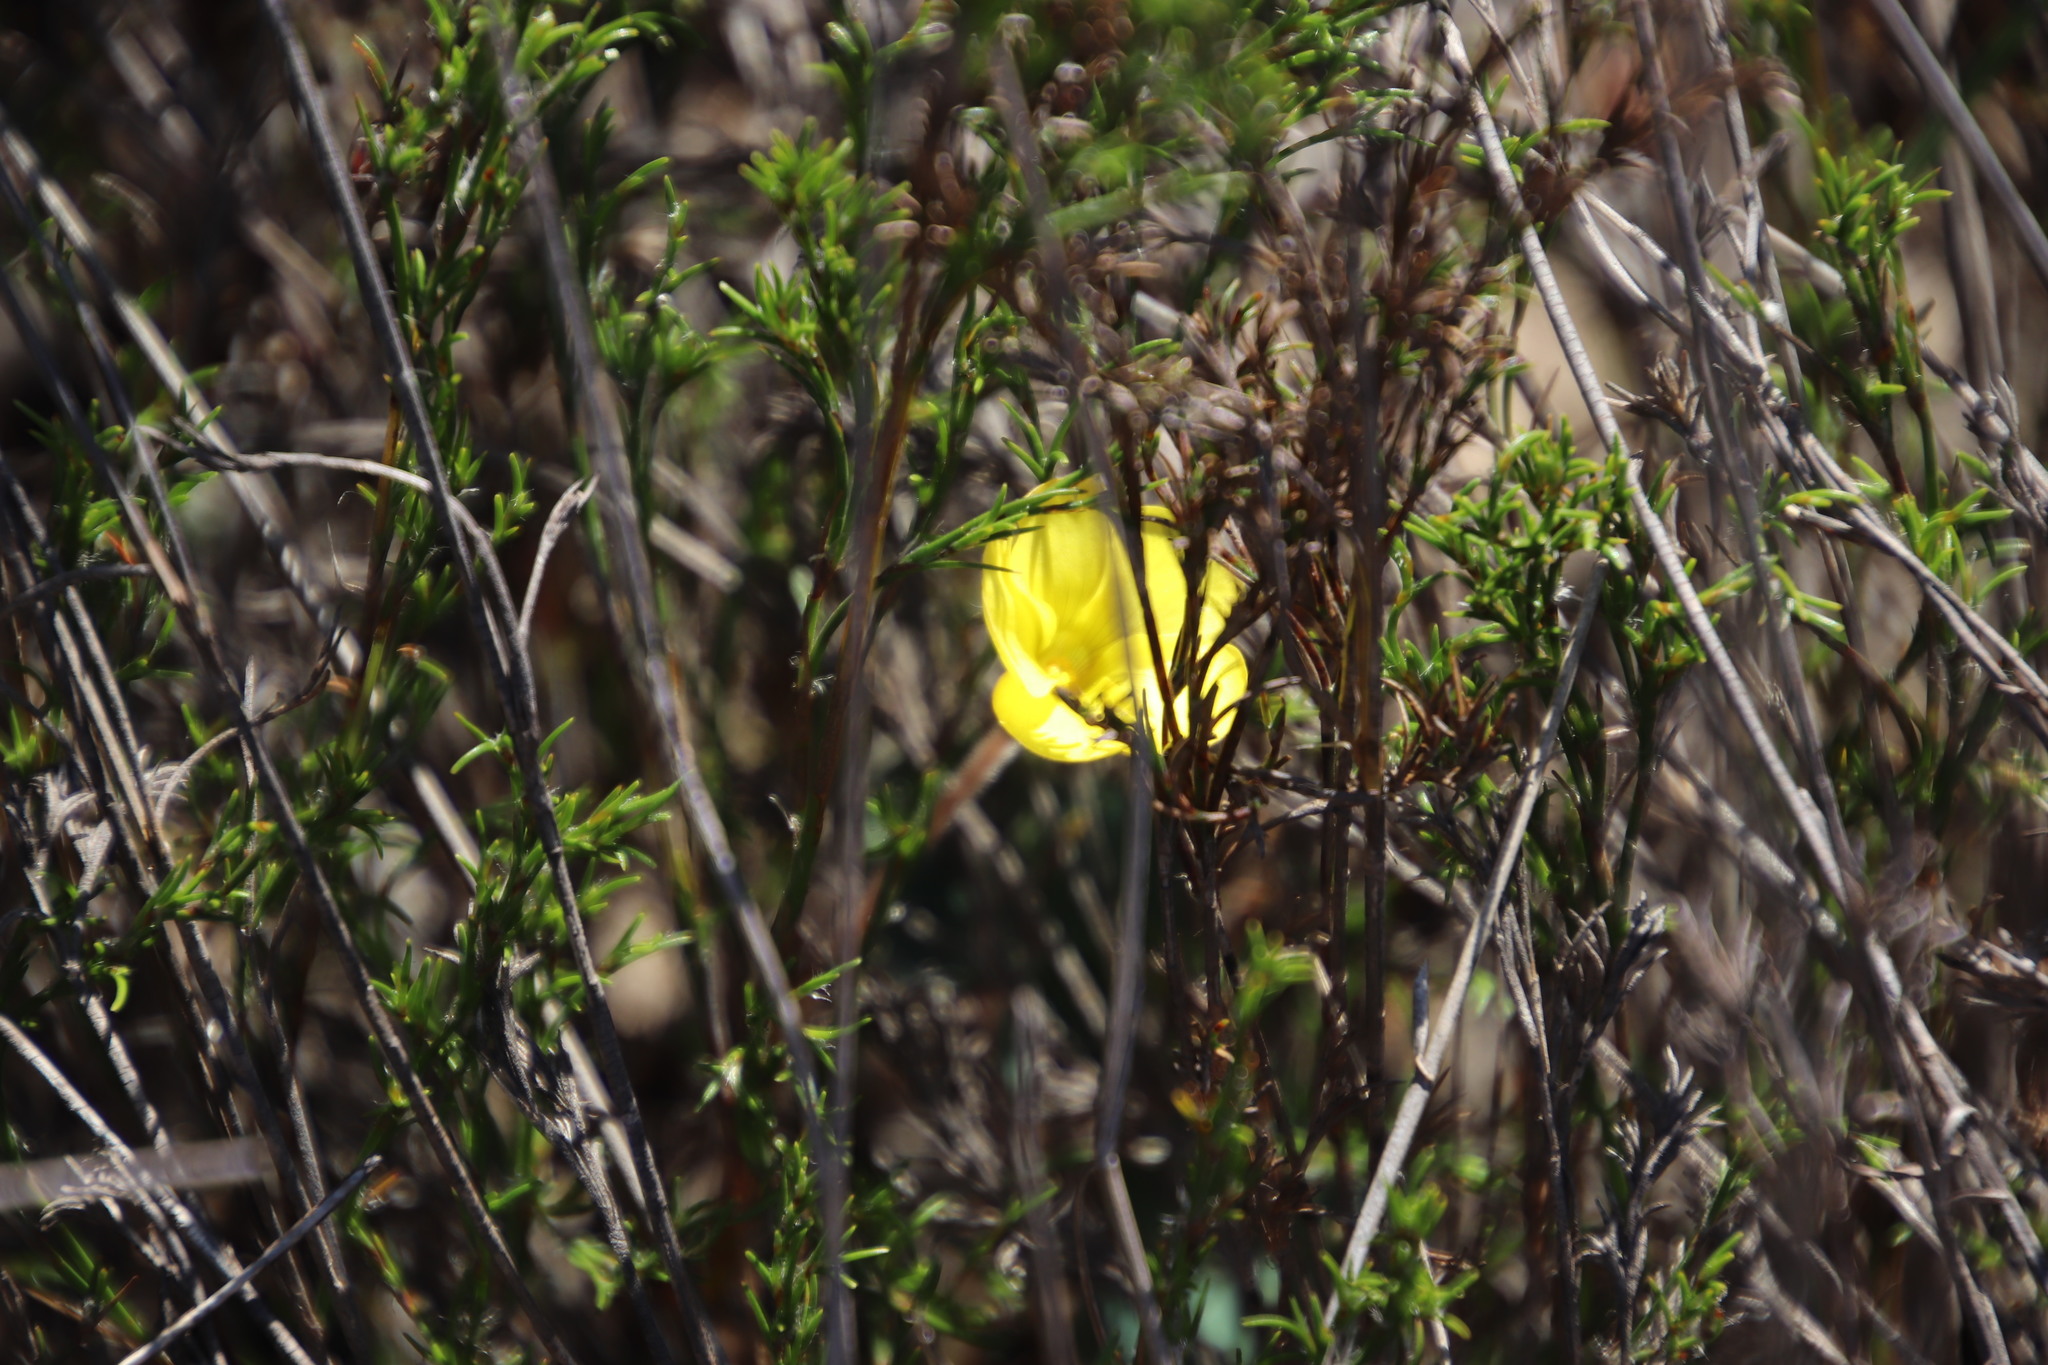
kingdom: Plantae
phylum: Tracheophyta
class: Magnoliopsida
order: Oxalidales
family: Oxalidaceae
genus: Oxalis
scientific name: Oxalis luteola
